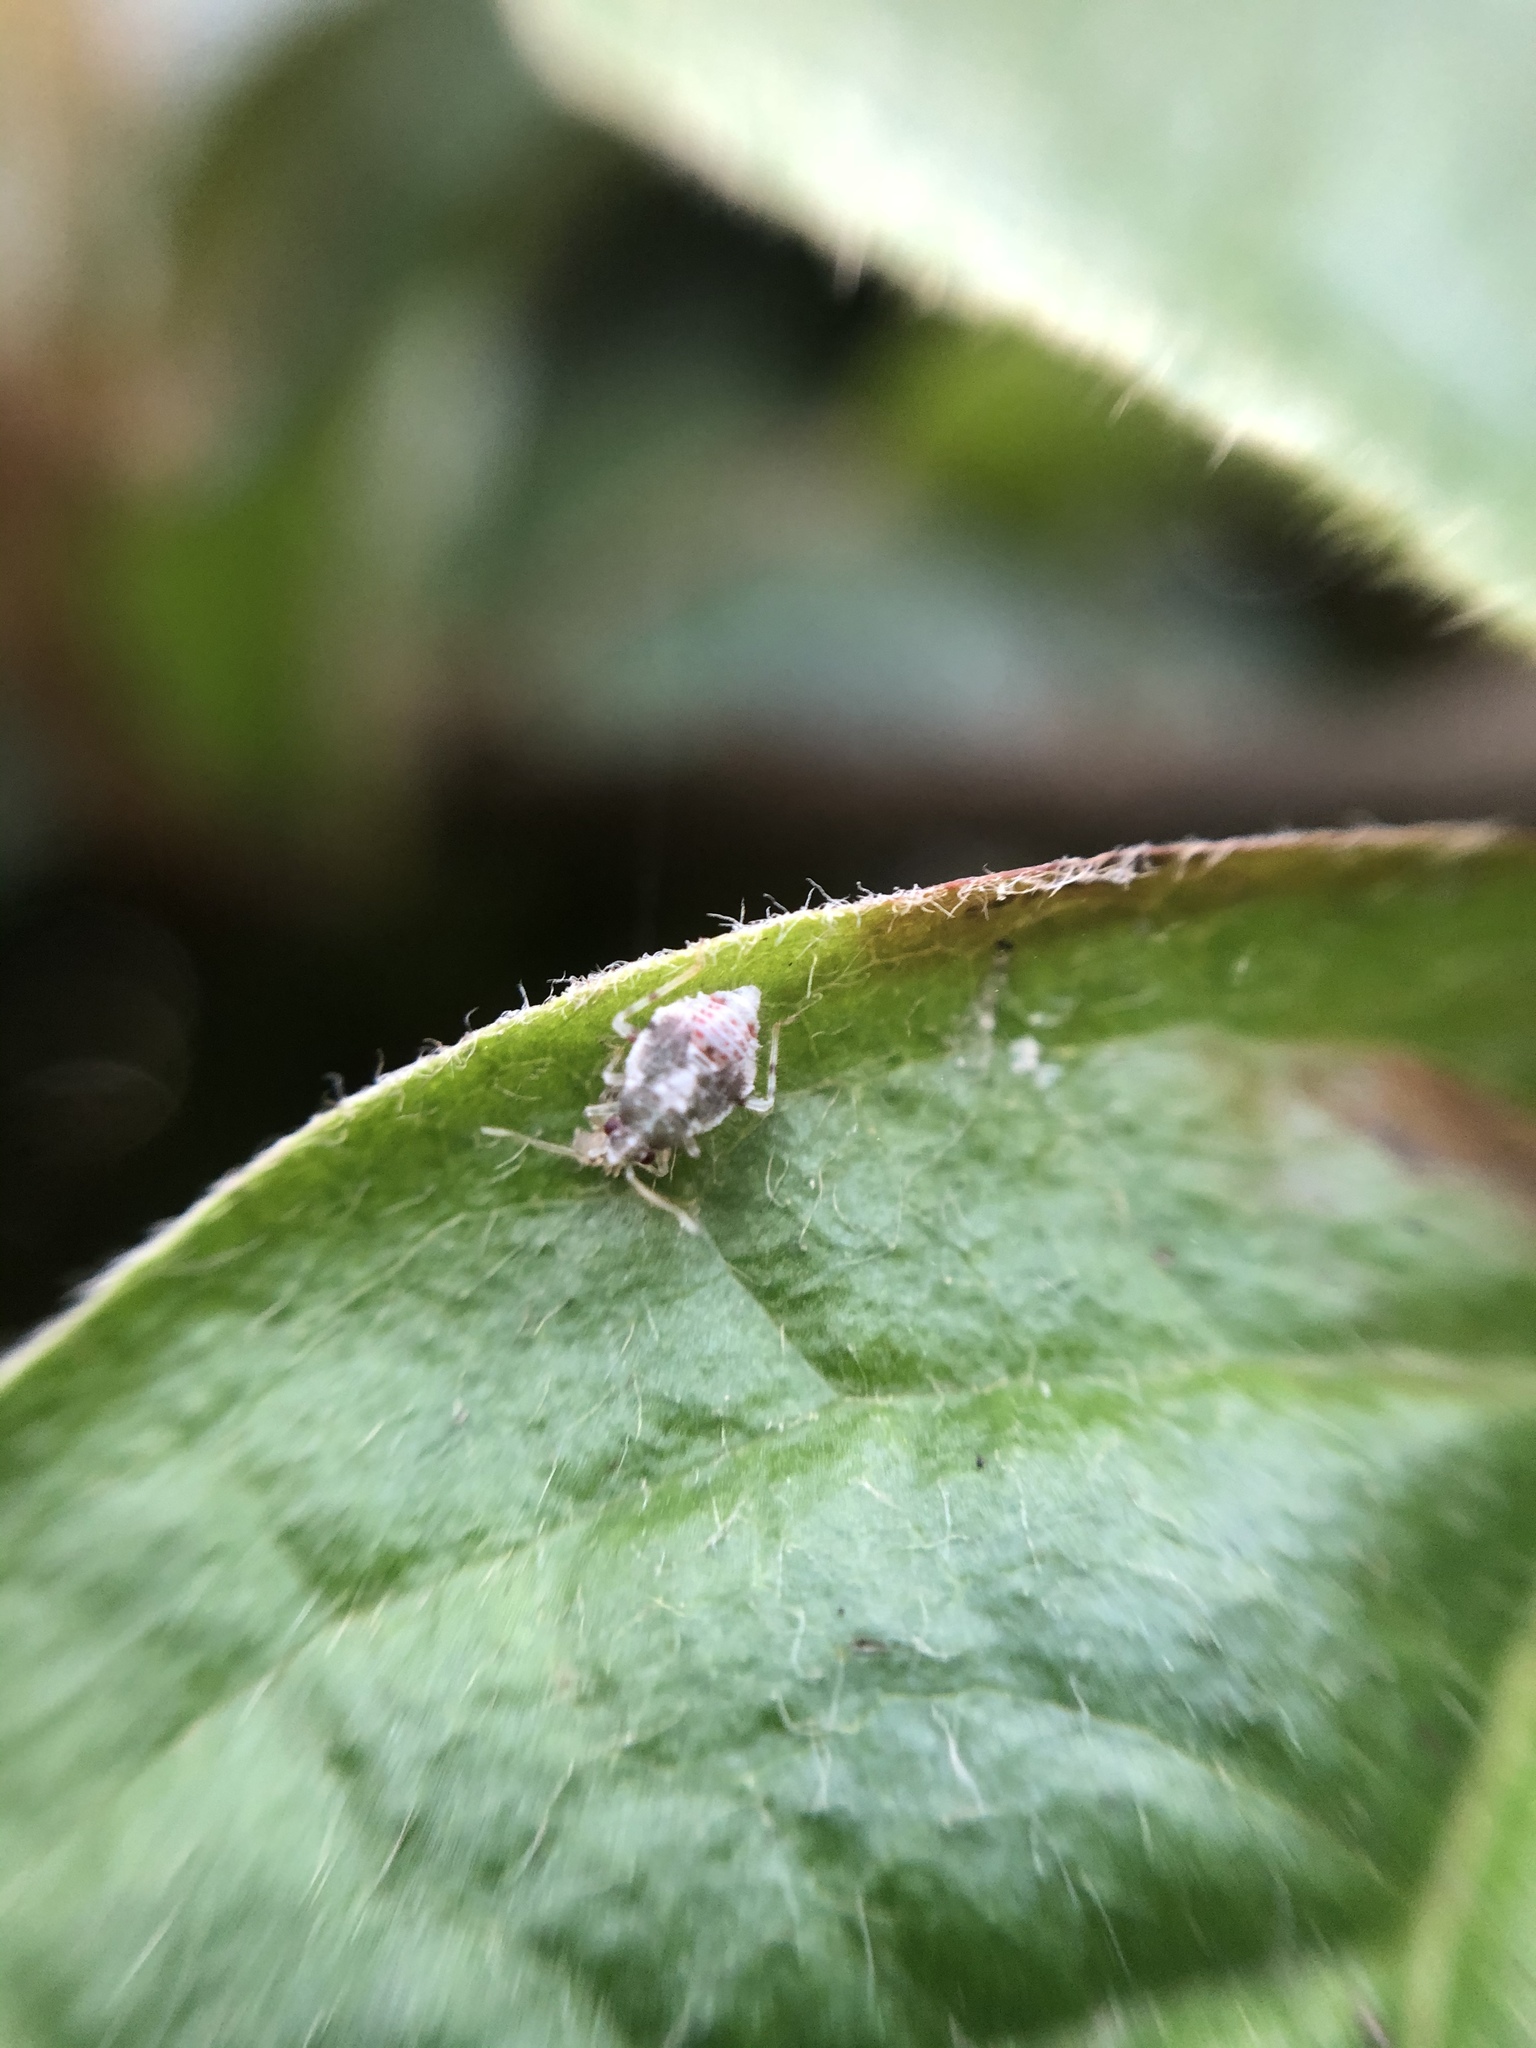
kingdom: Animalia
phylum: Arthropoda
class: Insecta
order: Hemiptera
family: Miridae
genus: Deraeocoris
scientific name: Deraeocoris lutescens
